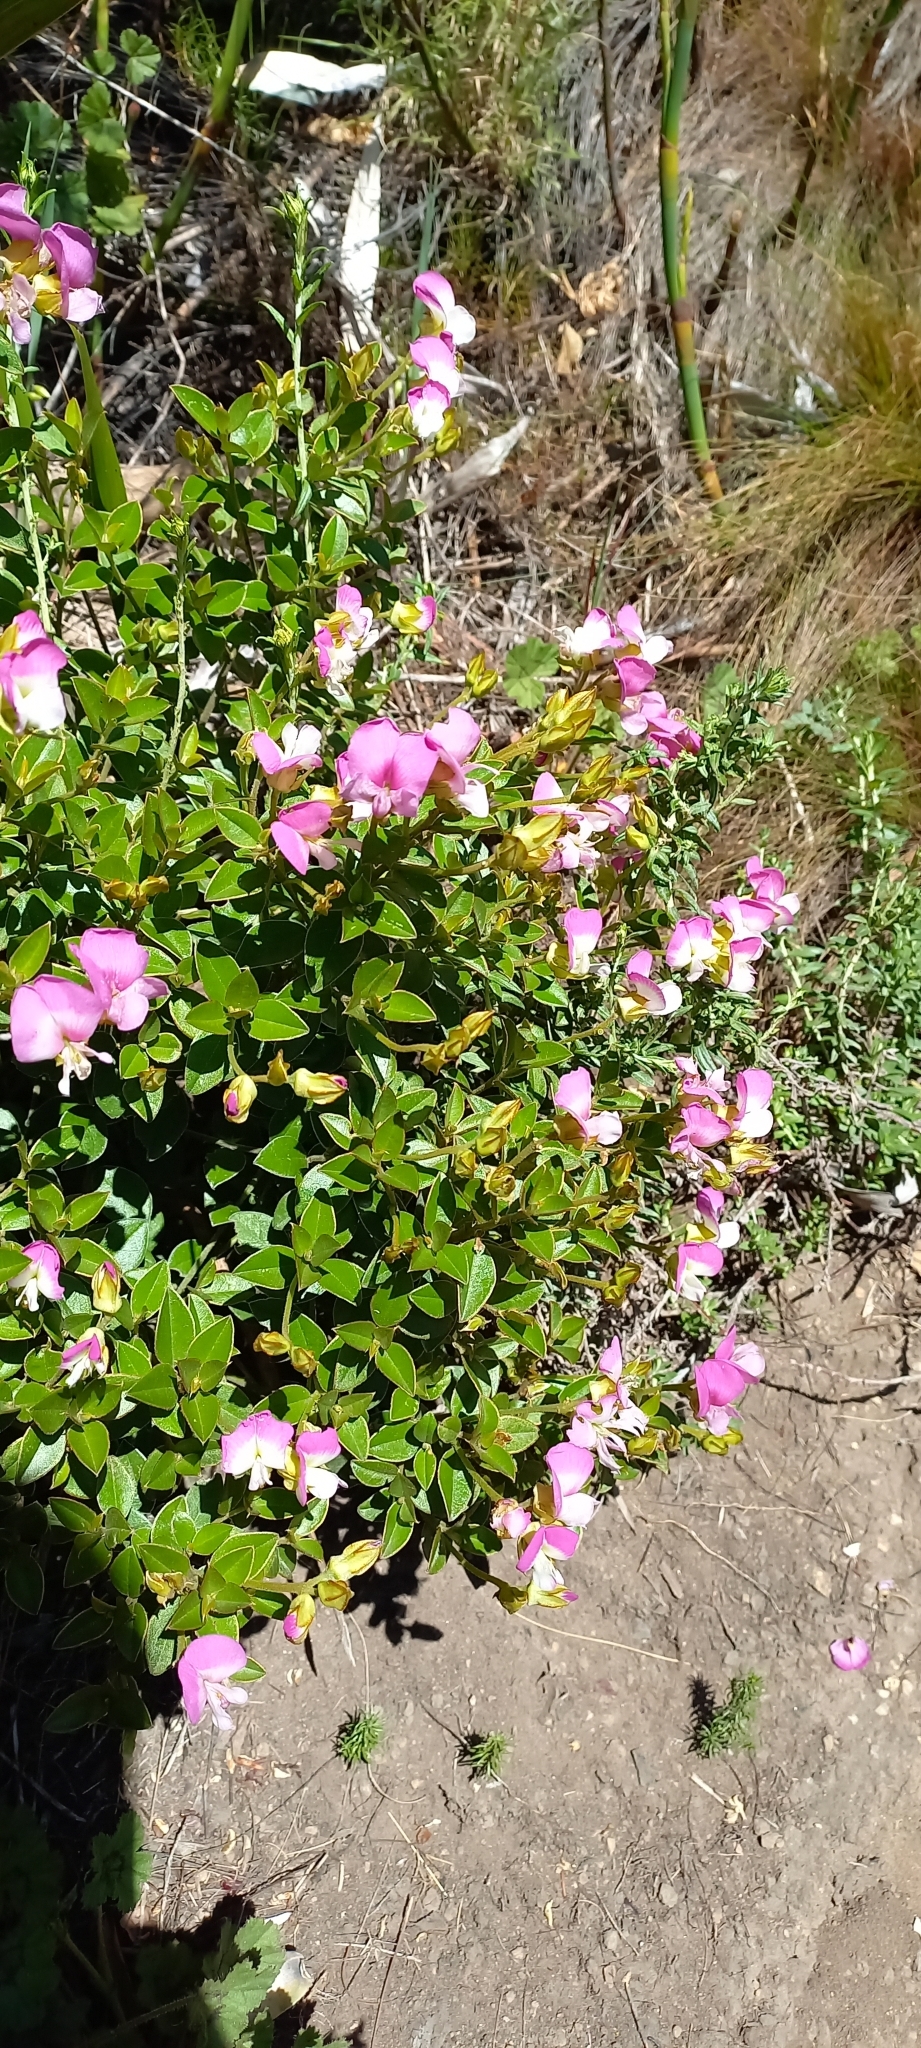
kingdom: Plantae
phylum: Tracheophyta
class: Magnoliopsida
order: Fabales
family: Fabaceae
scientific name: Fabaceae
